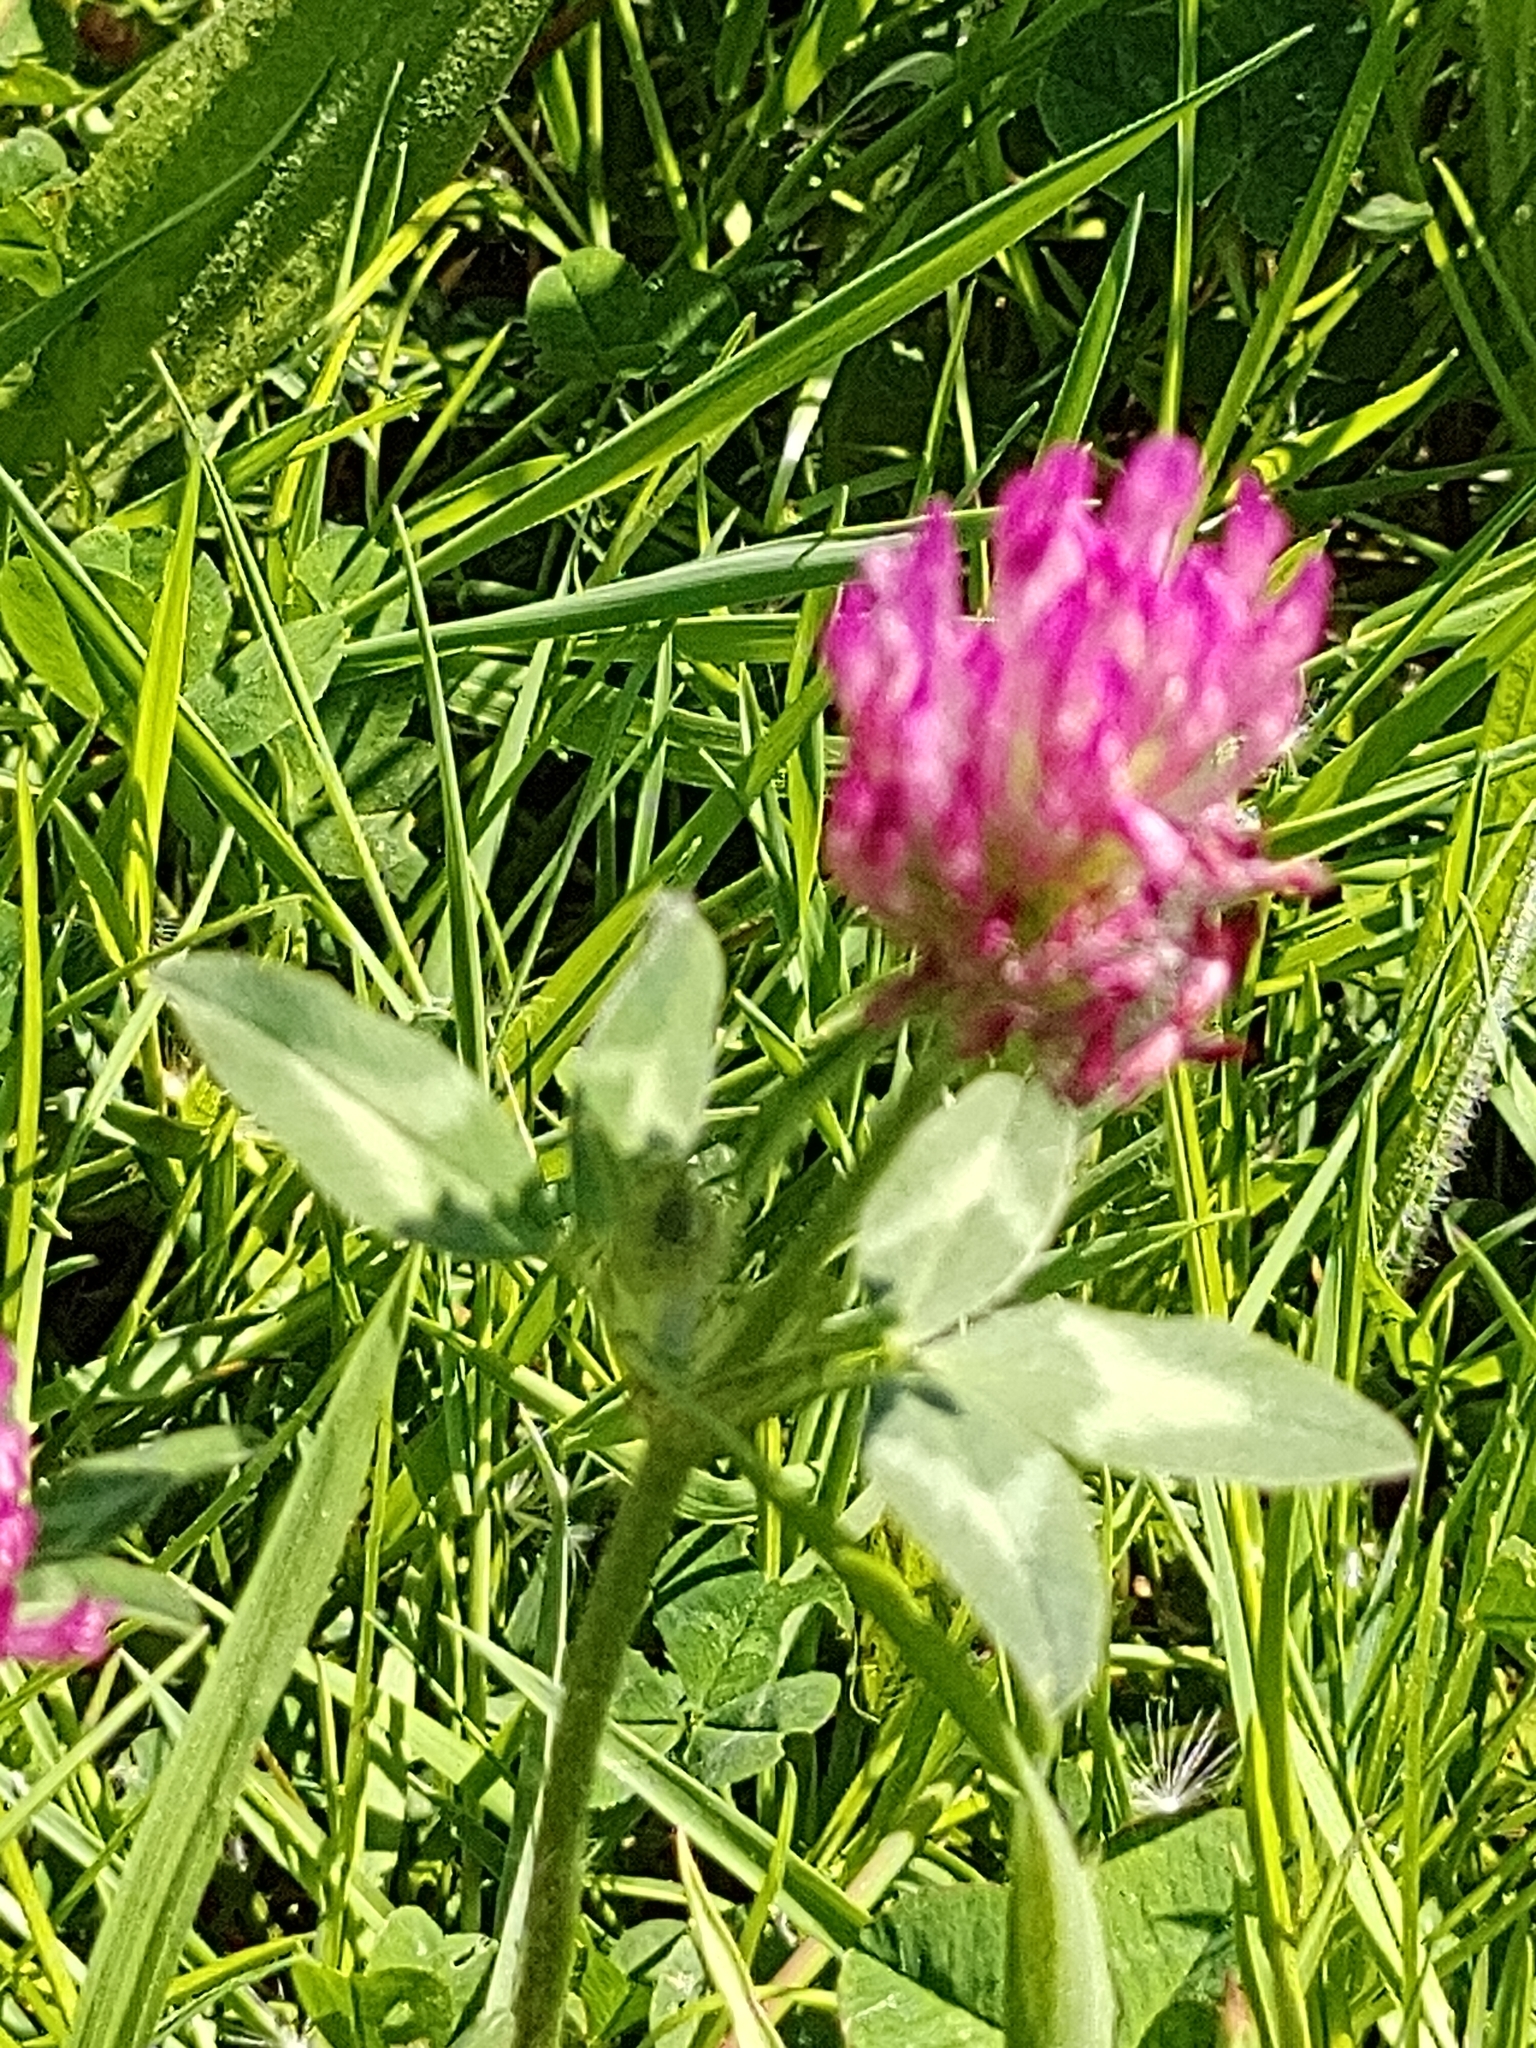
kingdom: Plantae
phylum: Tracheophyta
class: Magnoliopsida
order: Fabales
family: Fabaceae
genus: Trifolium
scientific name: Trifolium pratense
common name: Red clover
